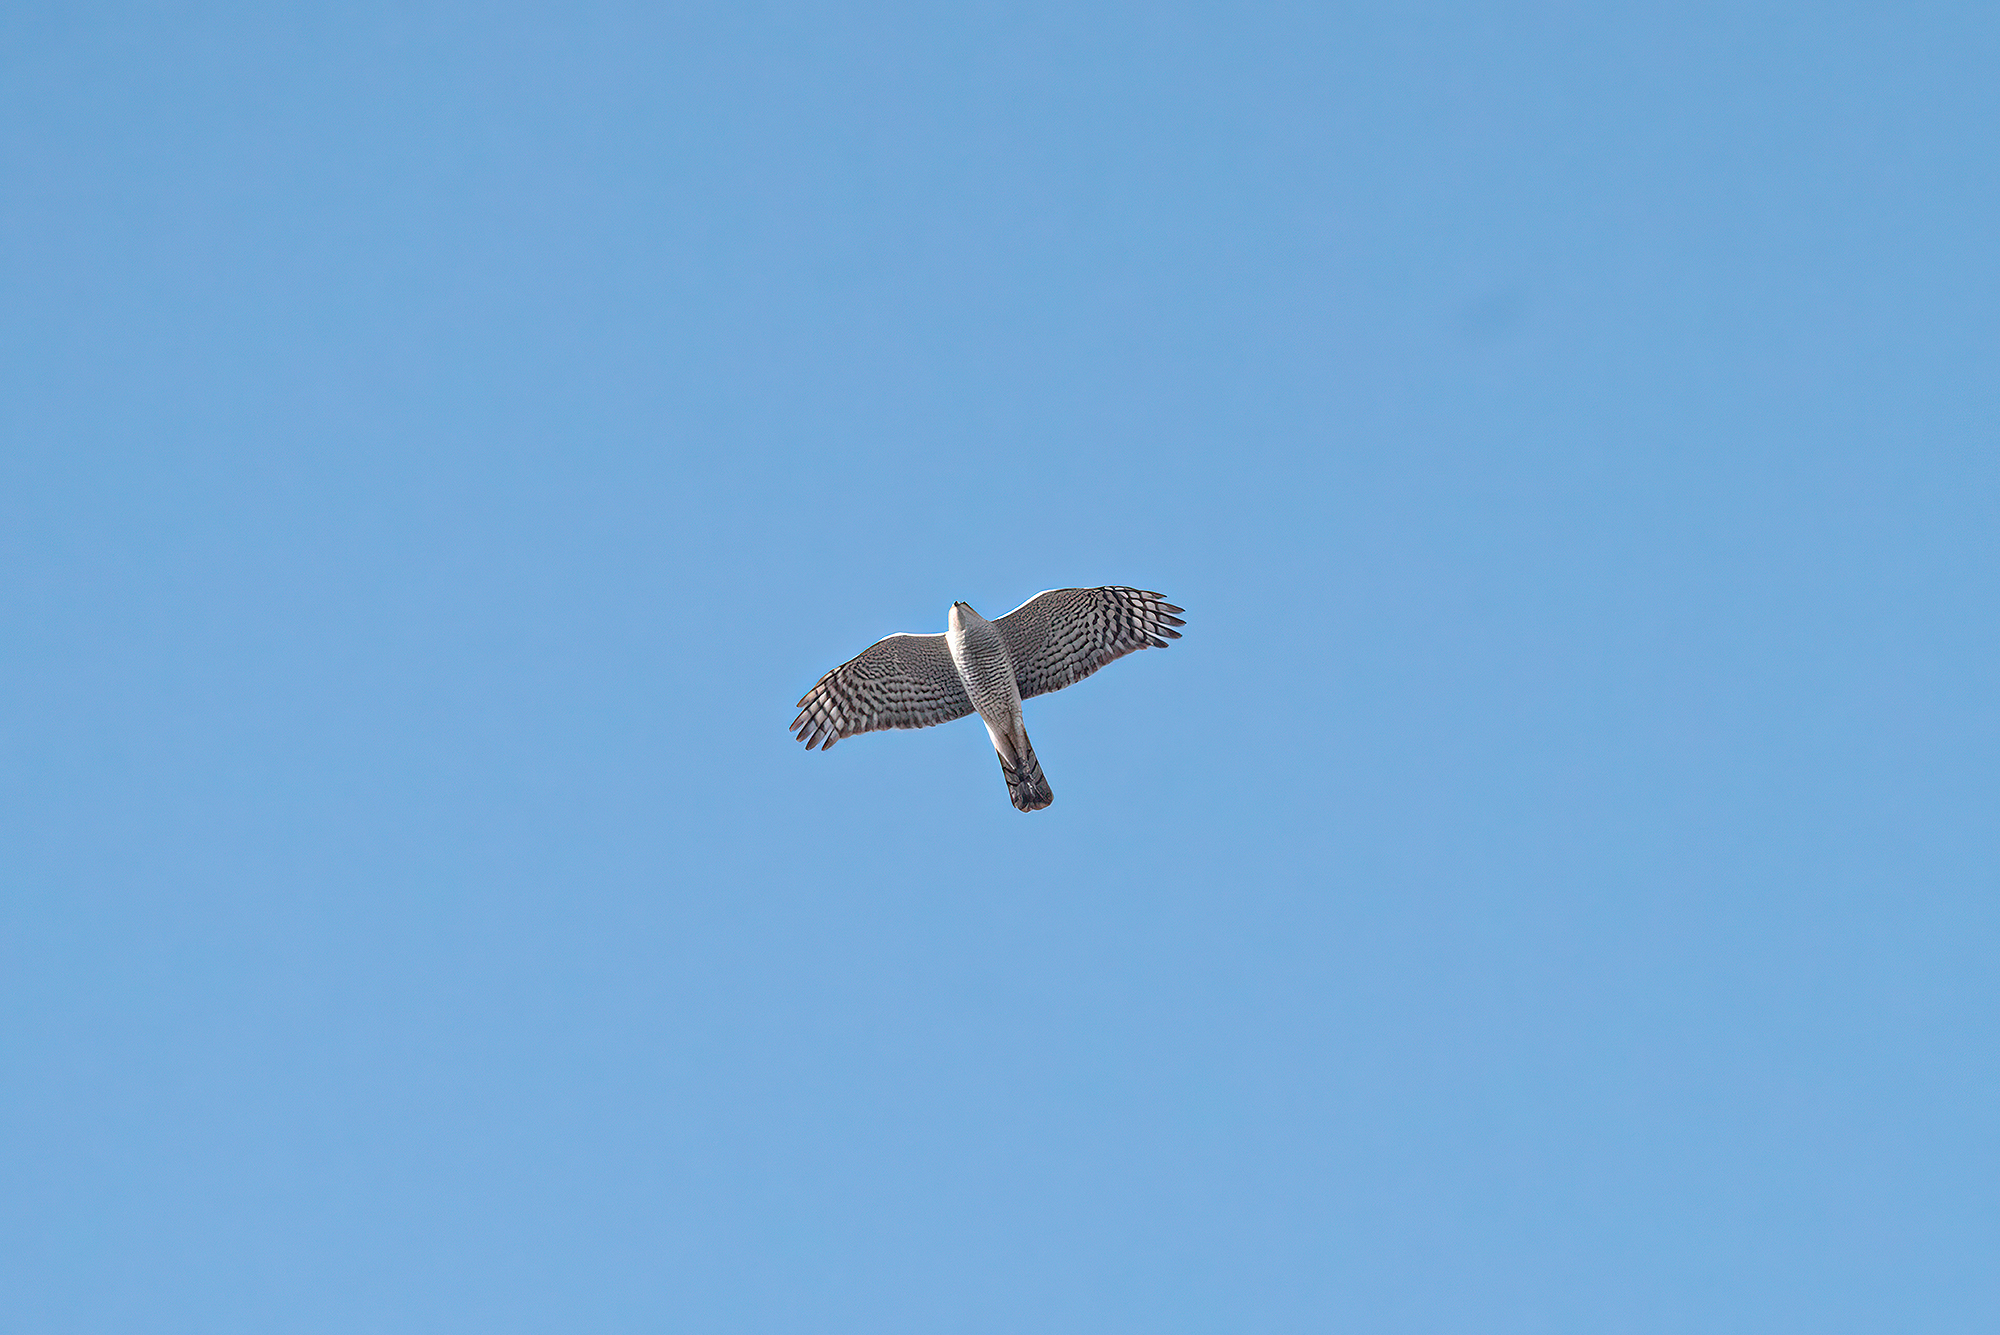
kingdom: Animalia
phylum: Chordata
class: Aves
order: Accipitriformes
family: Accipitridae
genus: Accipiter
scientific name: Accipiter nisus
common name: Eurasian sparrowhawk
